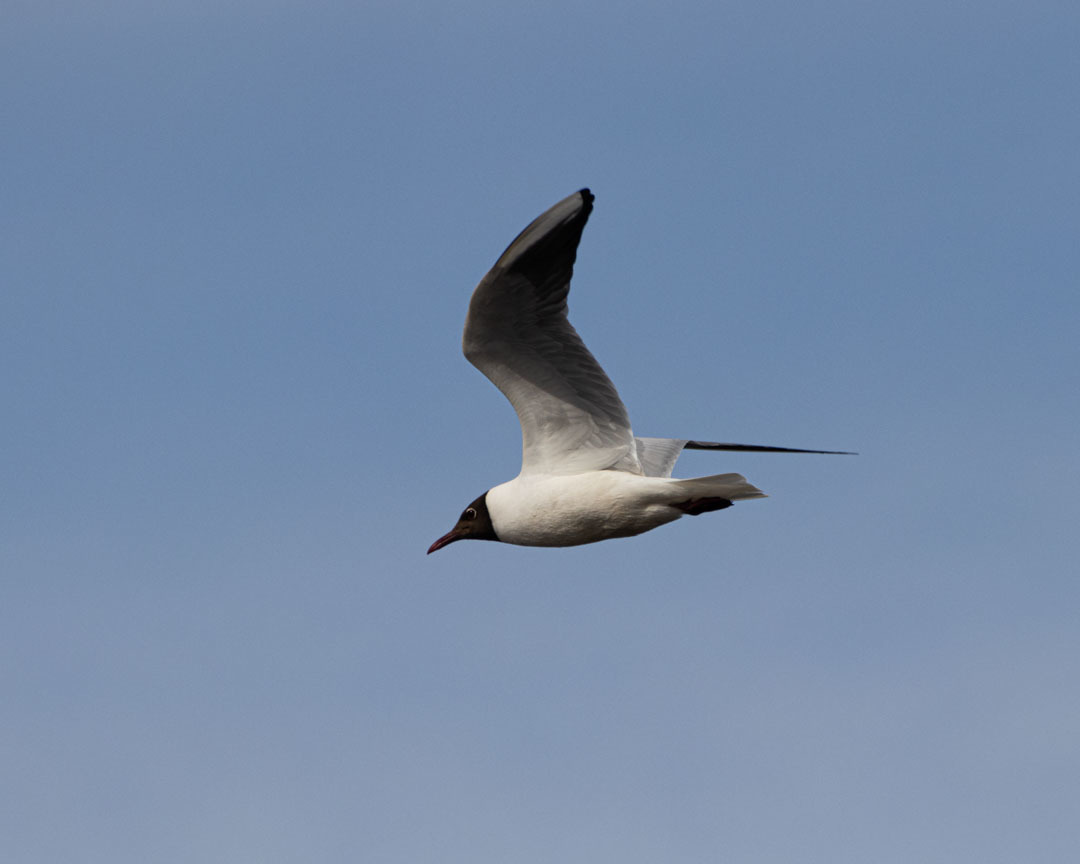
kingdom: Animalia
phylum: Chordata
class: Aves
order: Charadriiformes
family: Laridae
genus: Chroicocephalus
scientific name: Chroicocephalus ridibundus
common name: Black-headed gull
